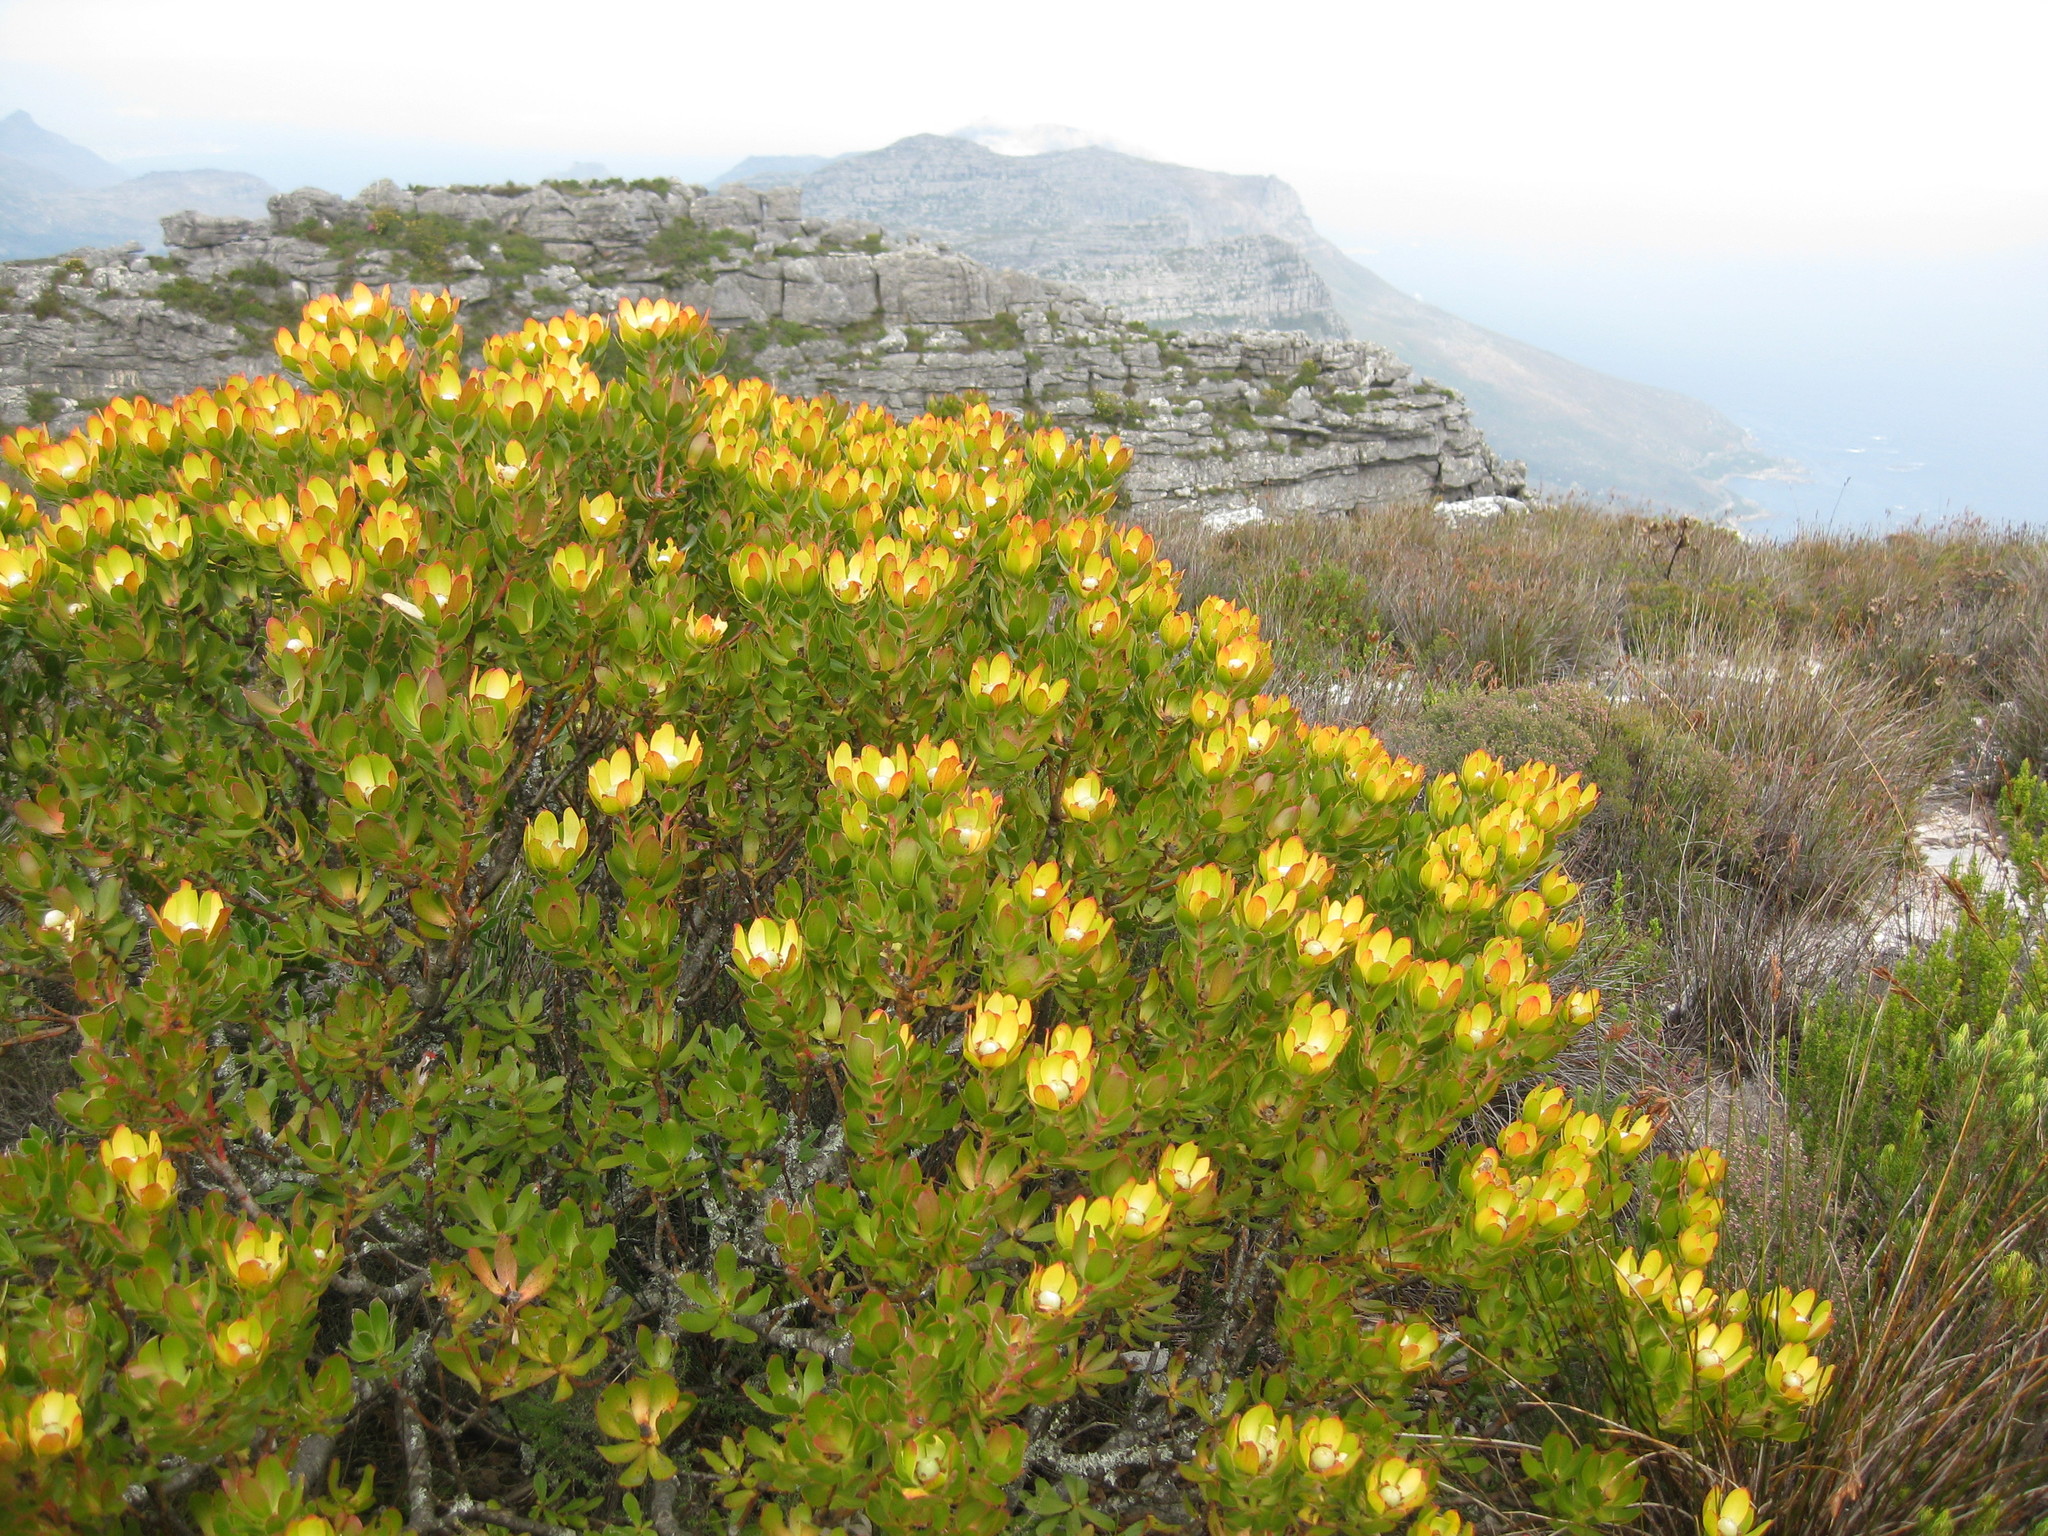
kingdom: Plantae
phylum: Tracheophyta
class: Magnoliopsida
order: Proteales
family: Proteaceae
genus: Leucadendron
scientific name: Leucadendron strobilinum
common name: Mountain rose
